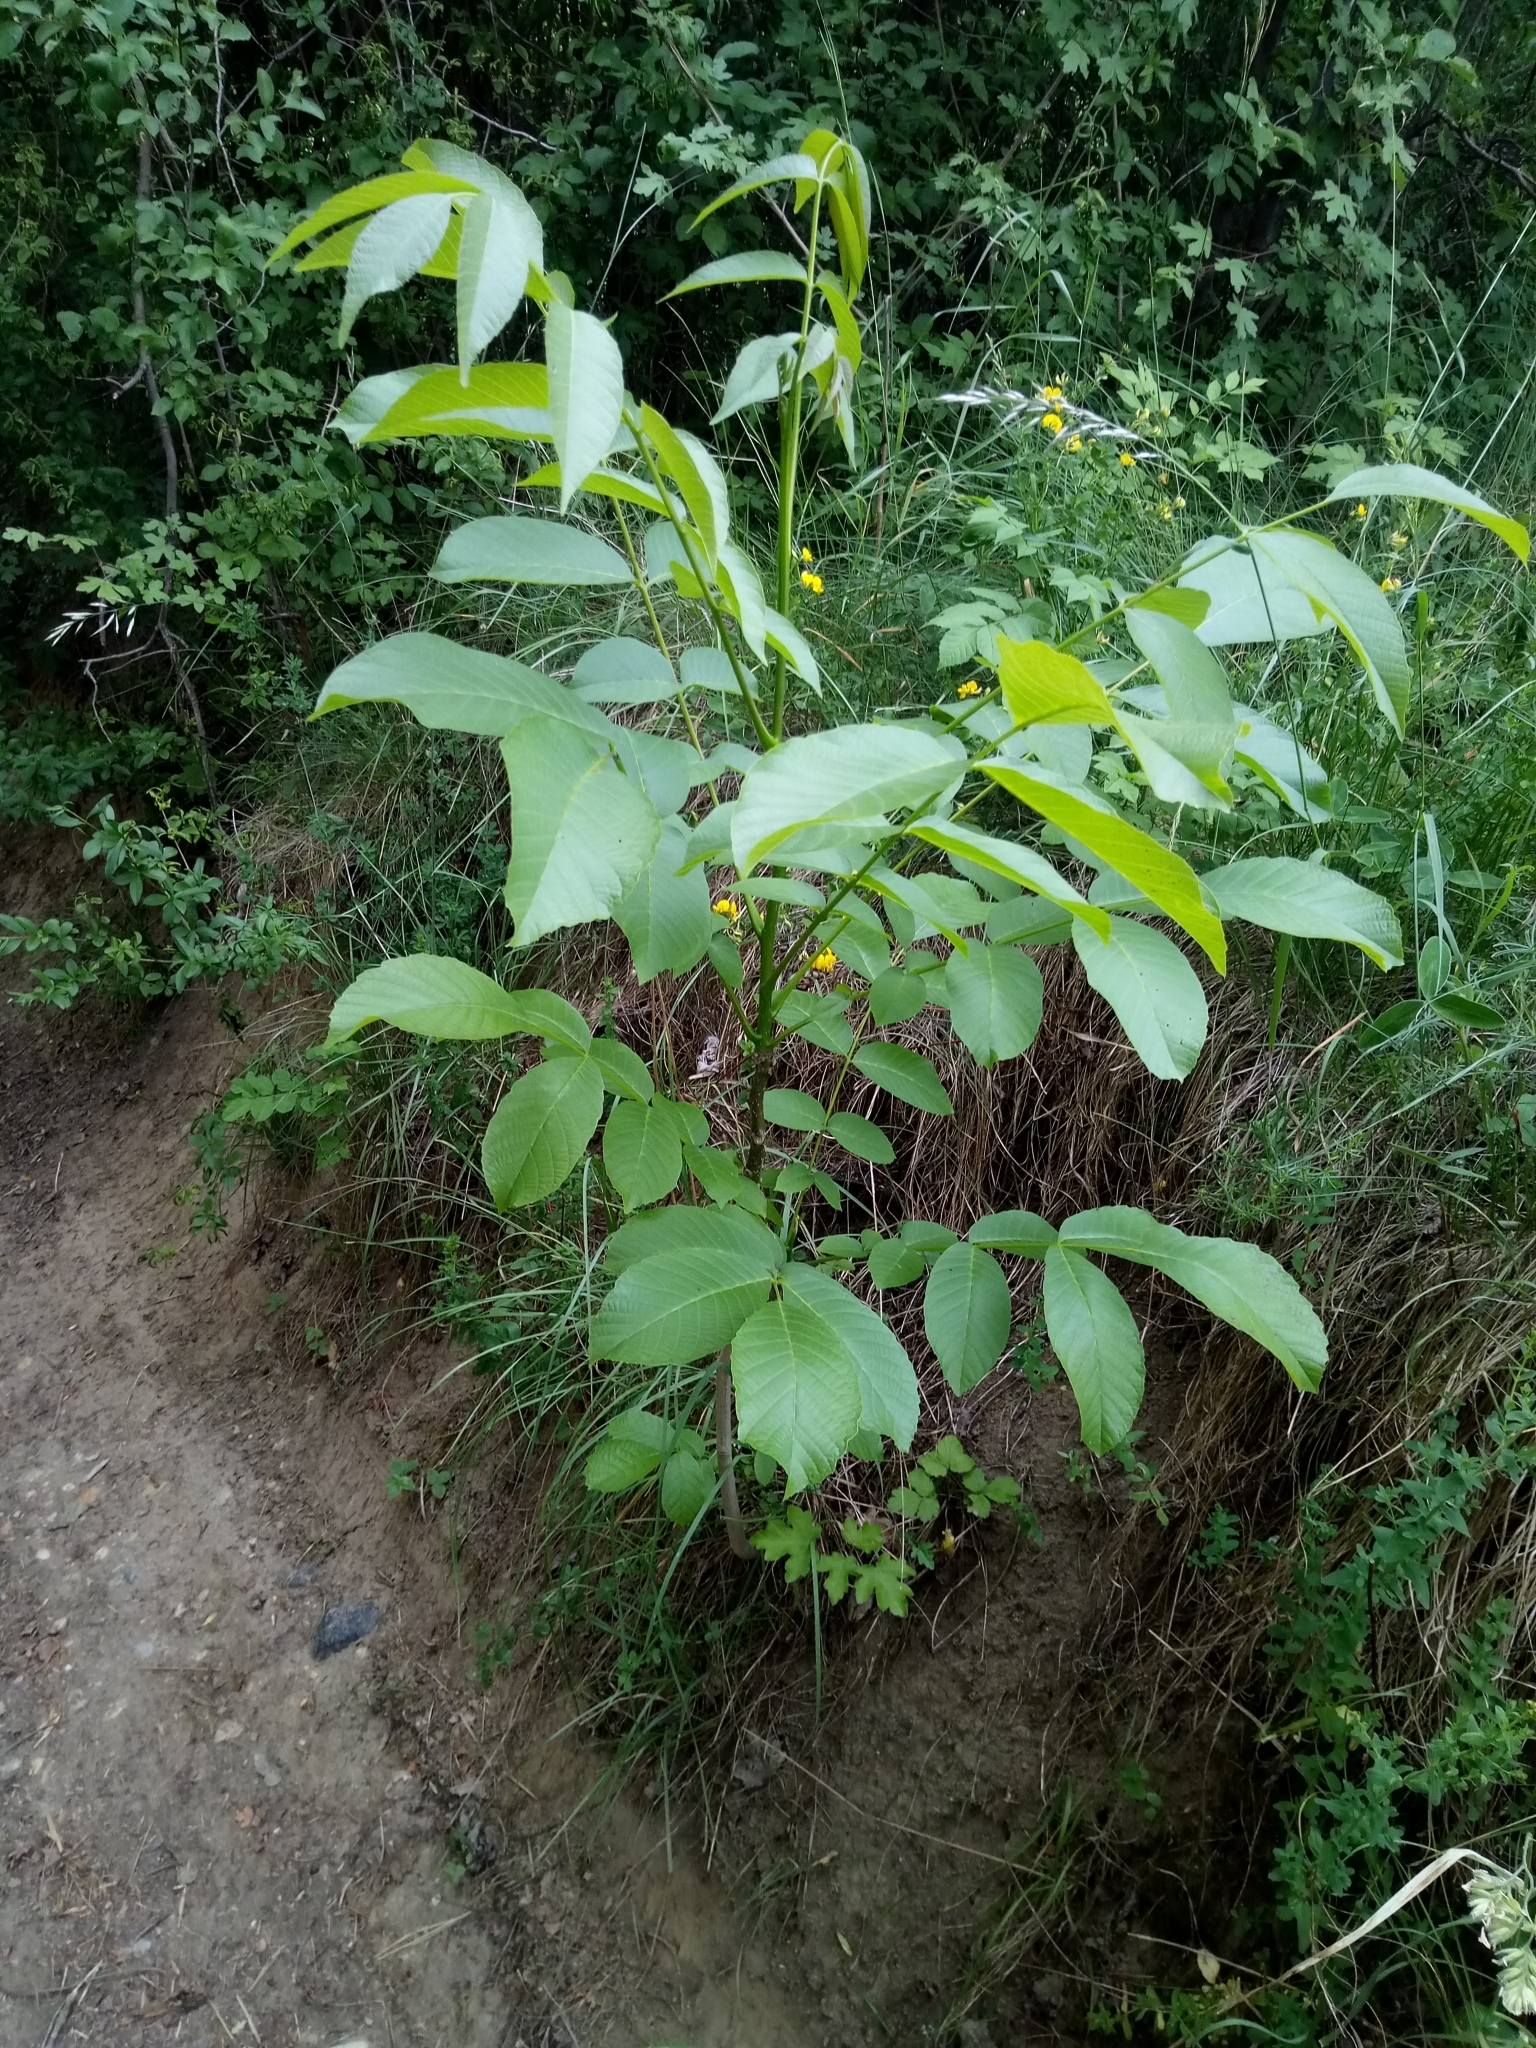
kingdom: Plantae
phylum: Tracheophyta
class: Magnoliopsida
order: Fagales
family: Juglandaceae
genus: Juglans
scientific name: Juglans regia
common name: Walnut
